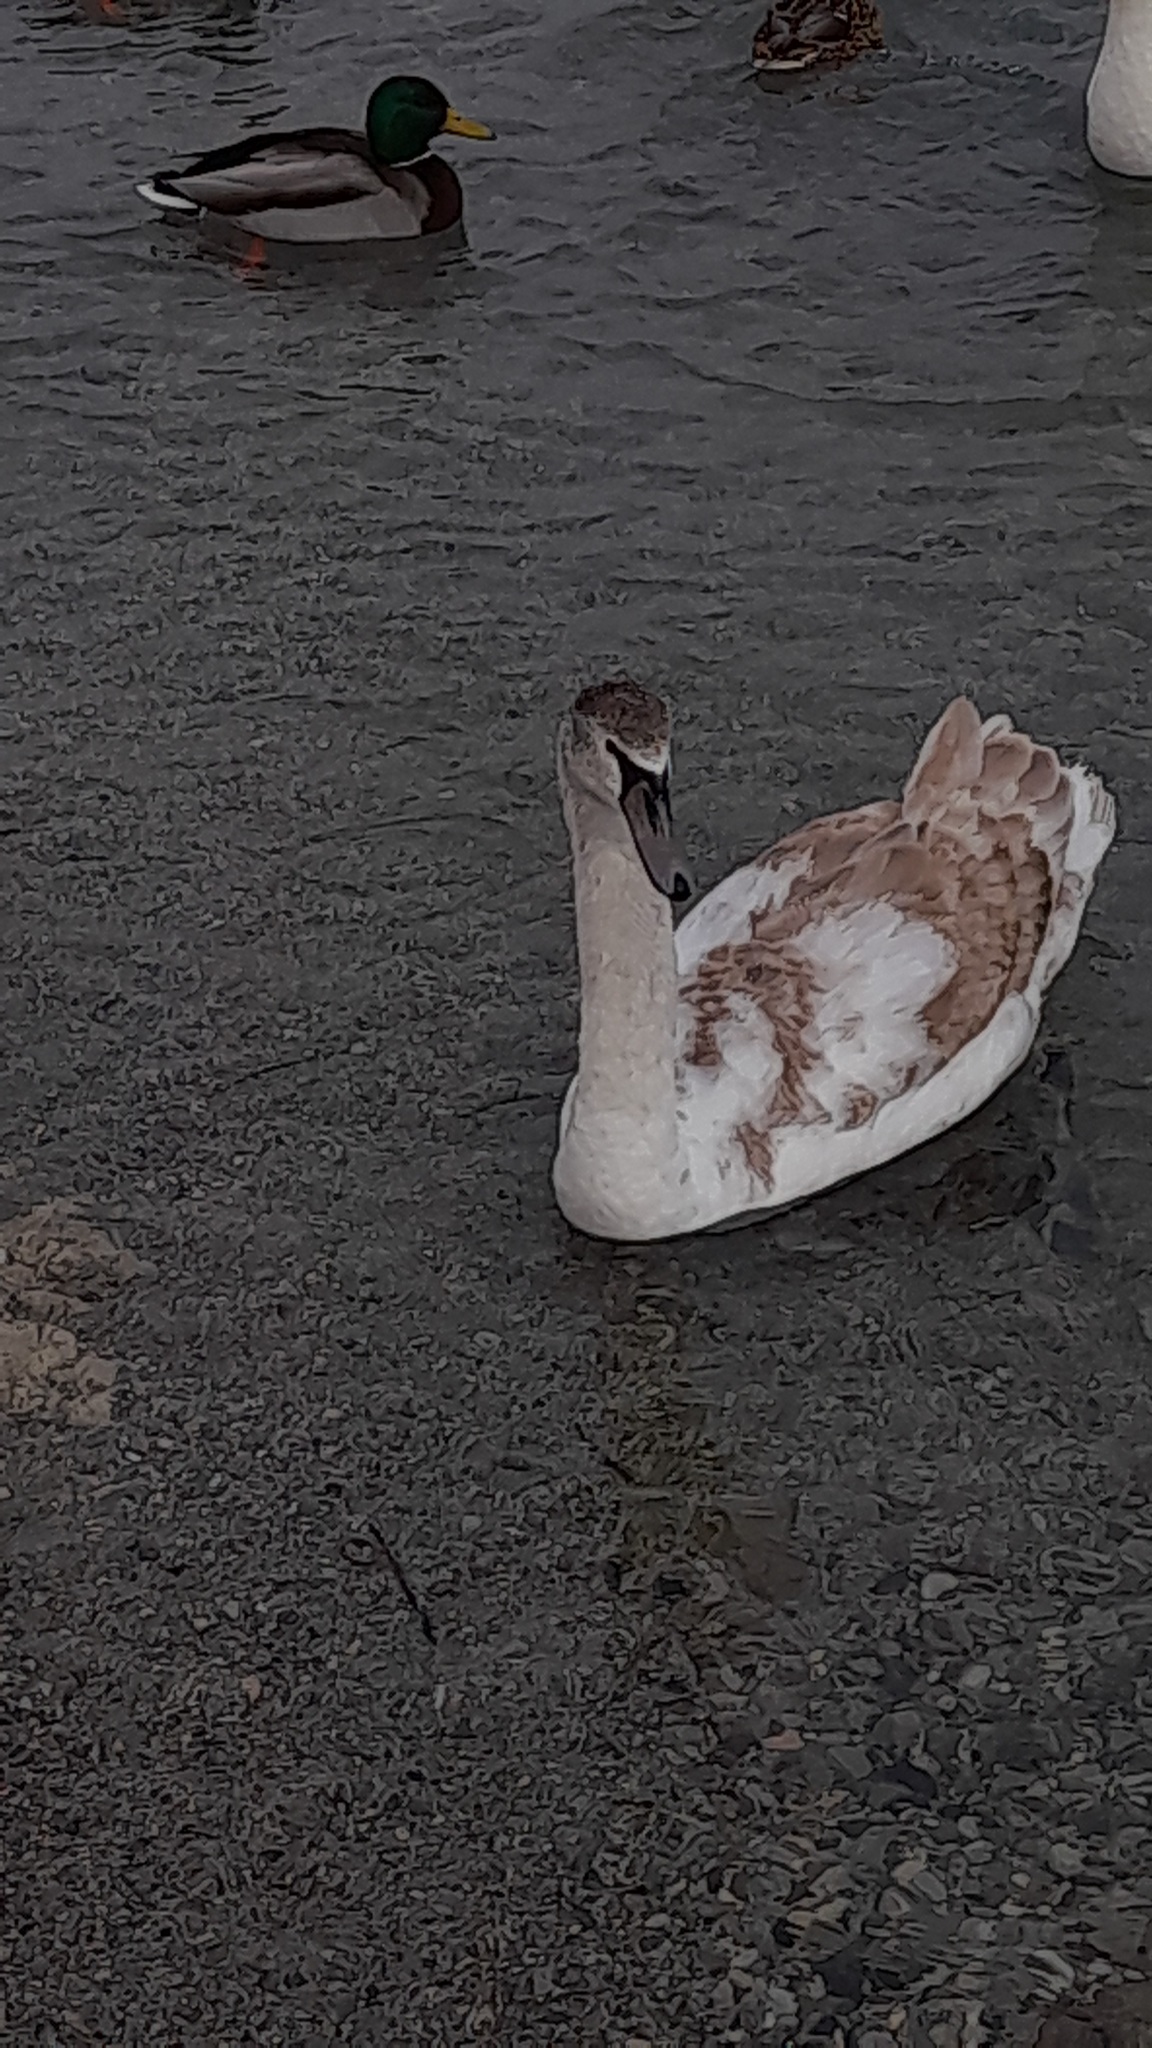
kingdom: Animalia
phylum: Chordata
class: Aves
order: Anseriformes
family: Anatidae
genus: Cygnus
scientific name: Cygnus olor
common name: Mute swan
